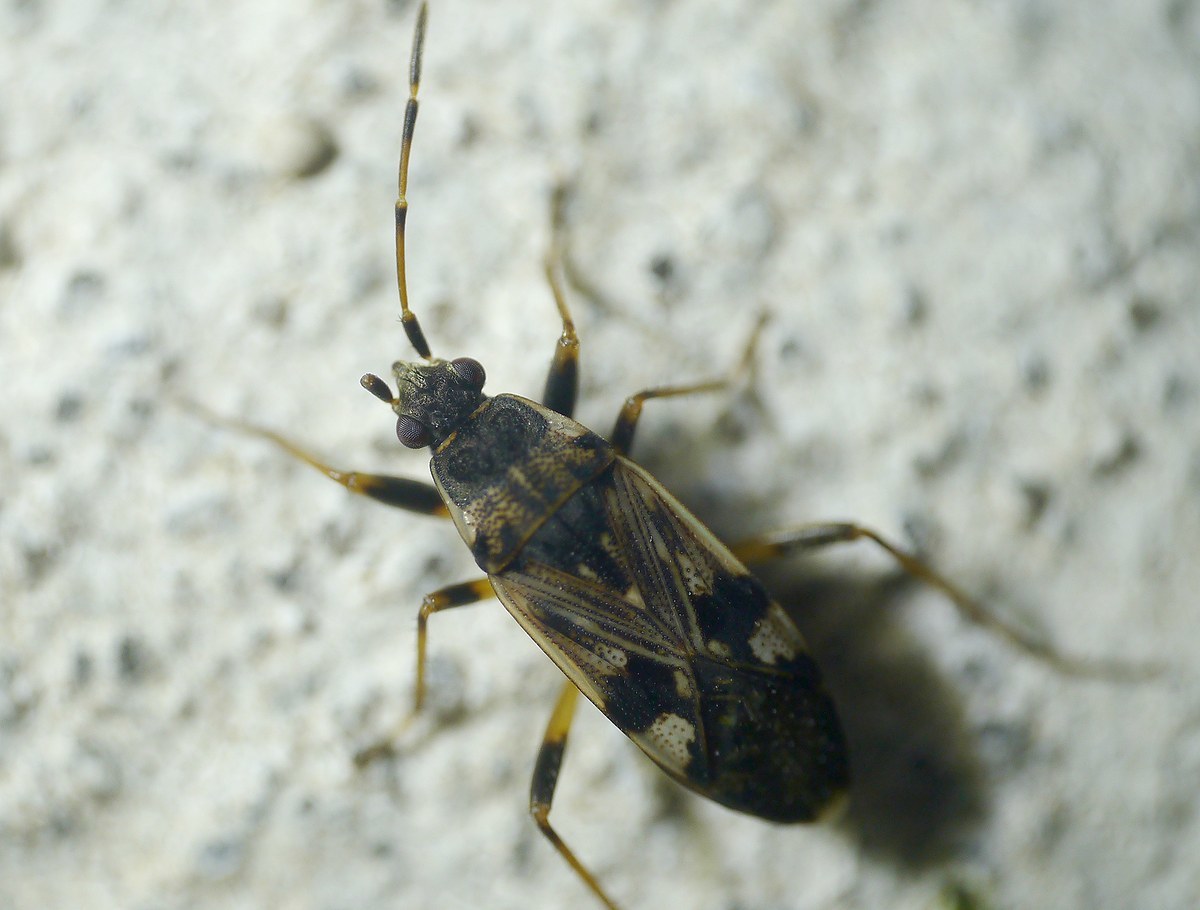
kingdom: Animalia
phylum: Arthropoda
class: Insecta
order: Hemiptera
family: Rhyparochromidae
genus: Beosus
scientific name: Beosus maritimus
